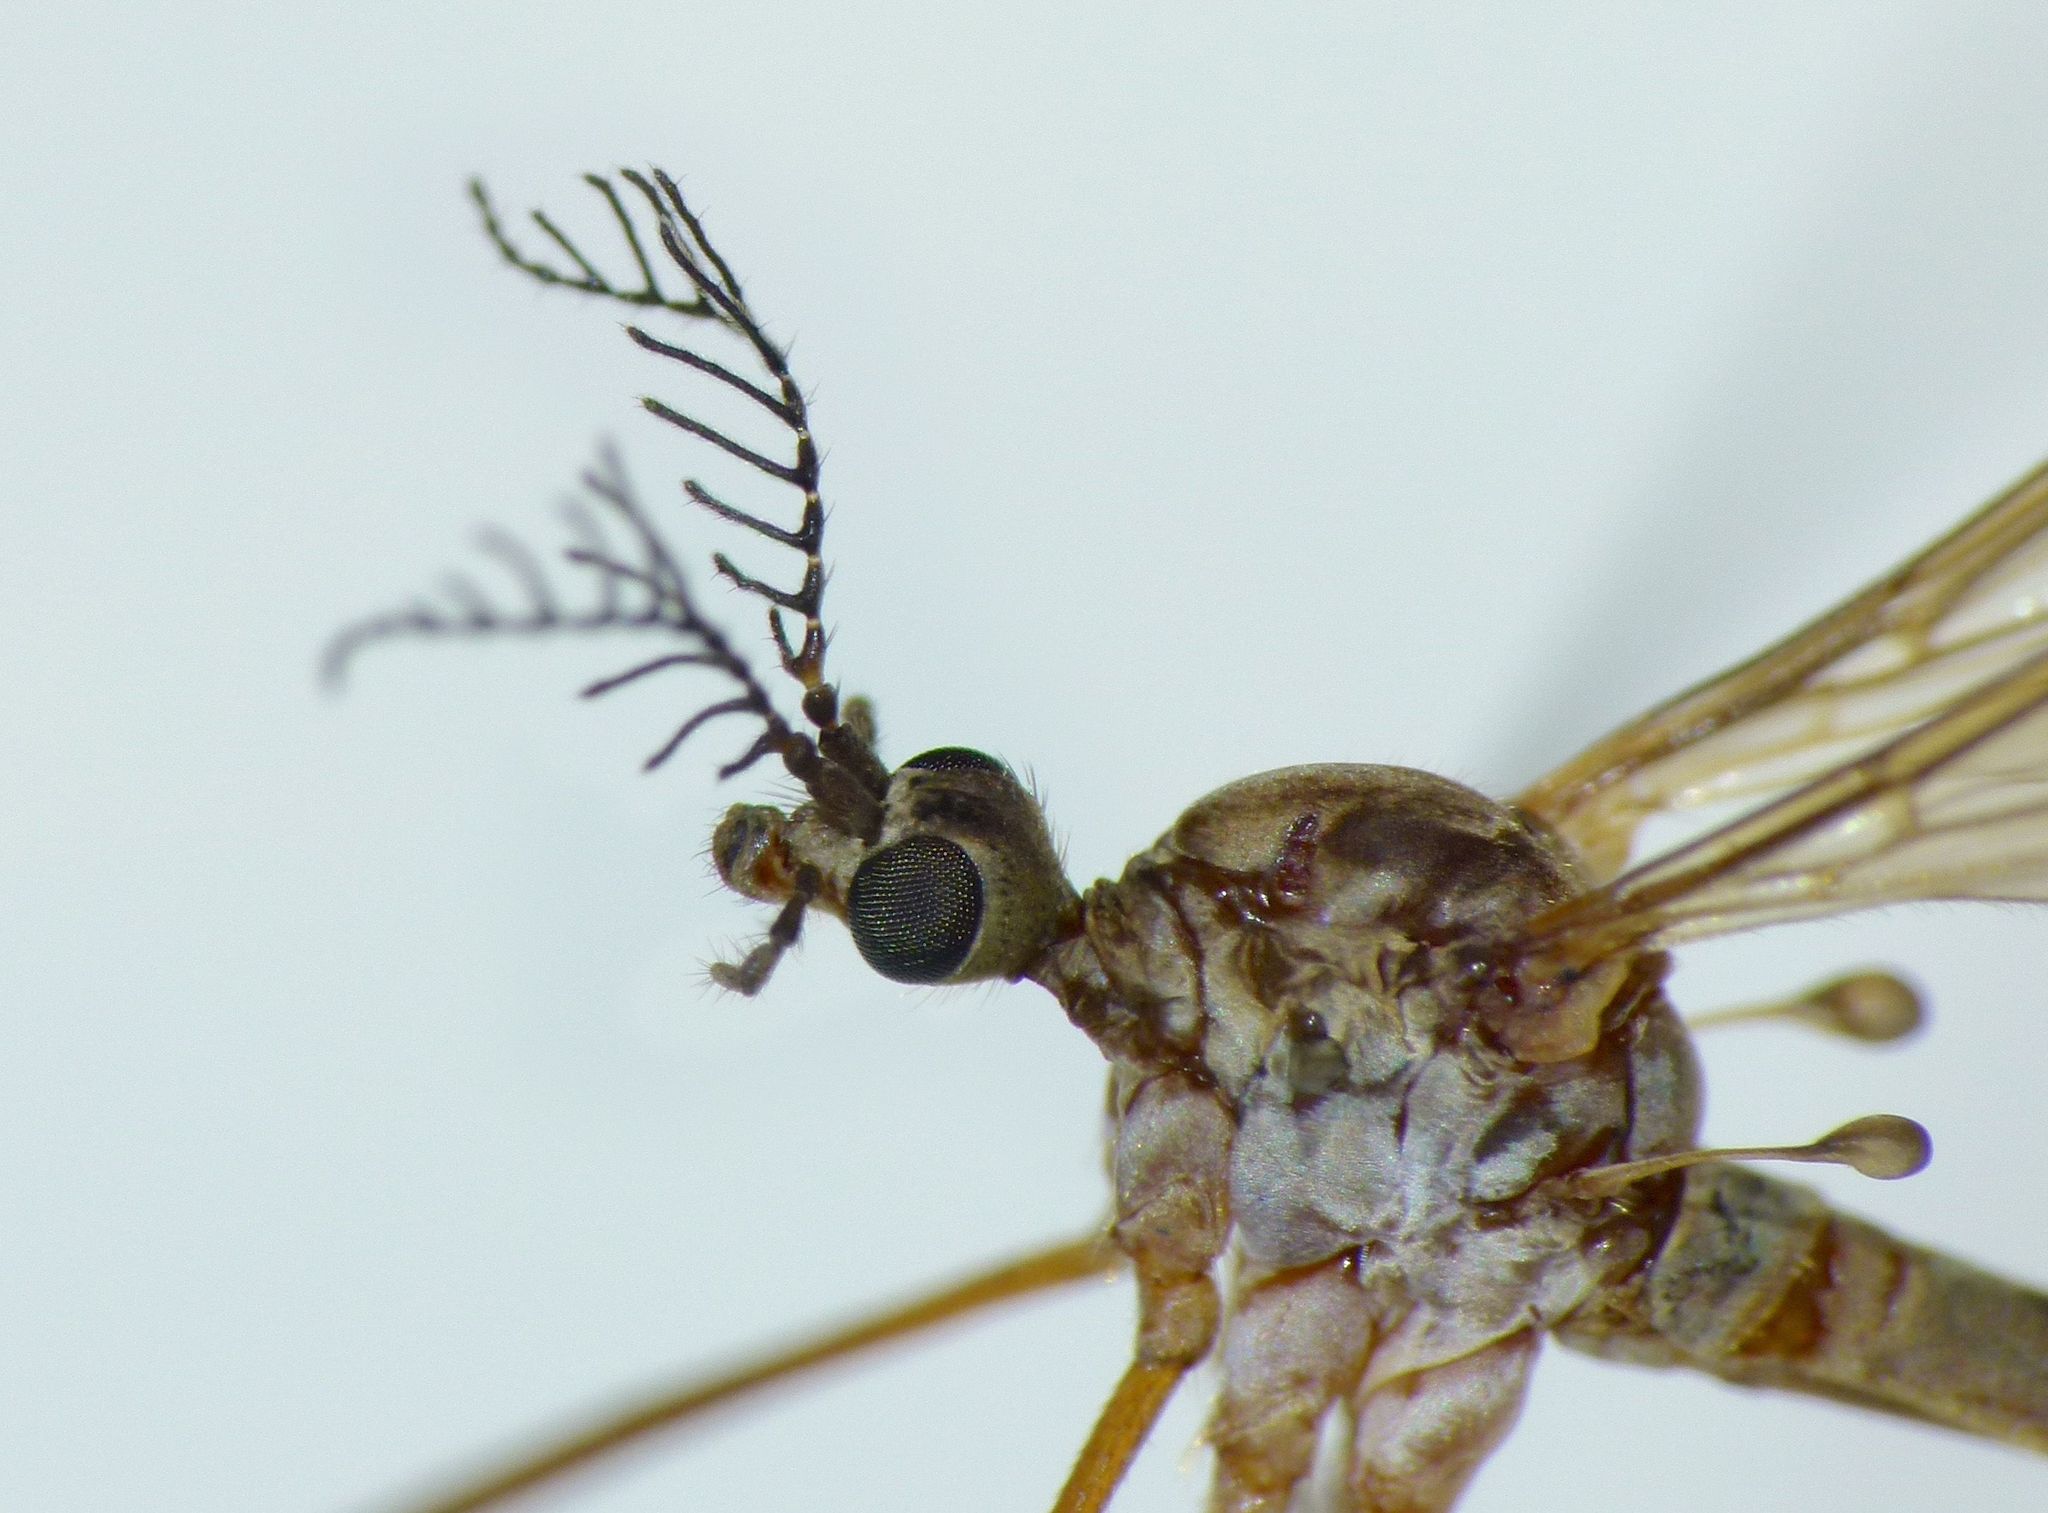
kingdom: Animalia
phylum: Arthropoda
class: Insecta
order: Diptera
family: Limoniidae
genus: Gynoplistia
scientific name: Gynoplistia inconjuncta
